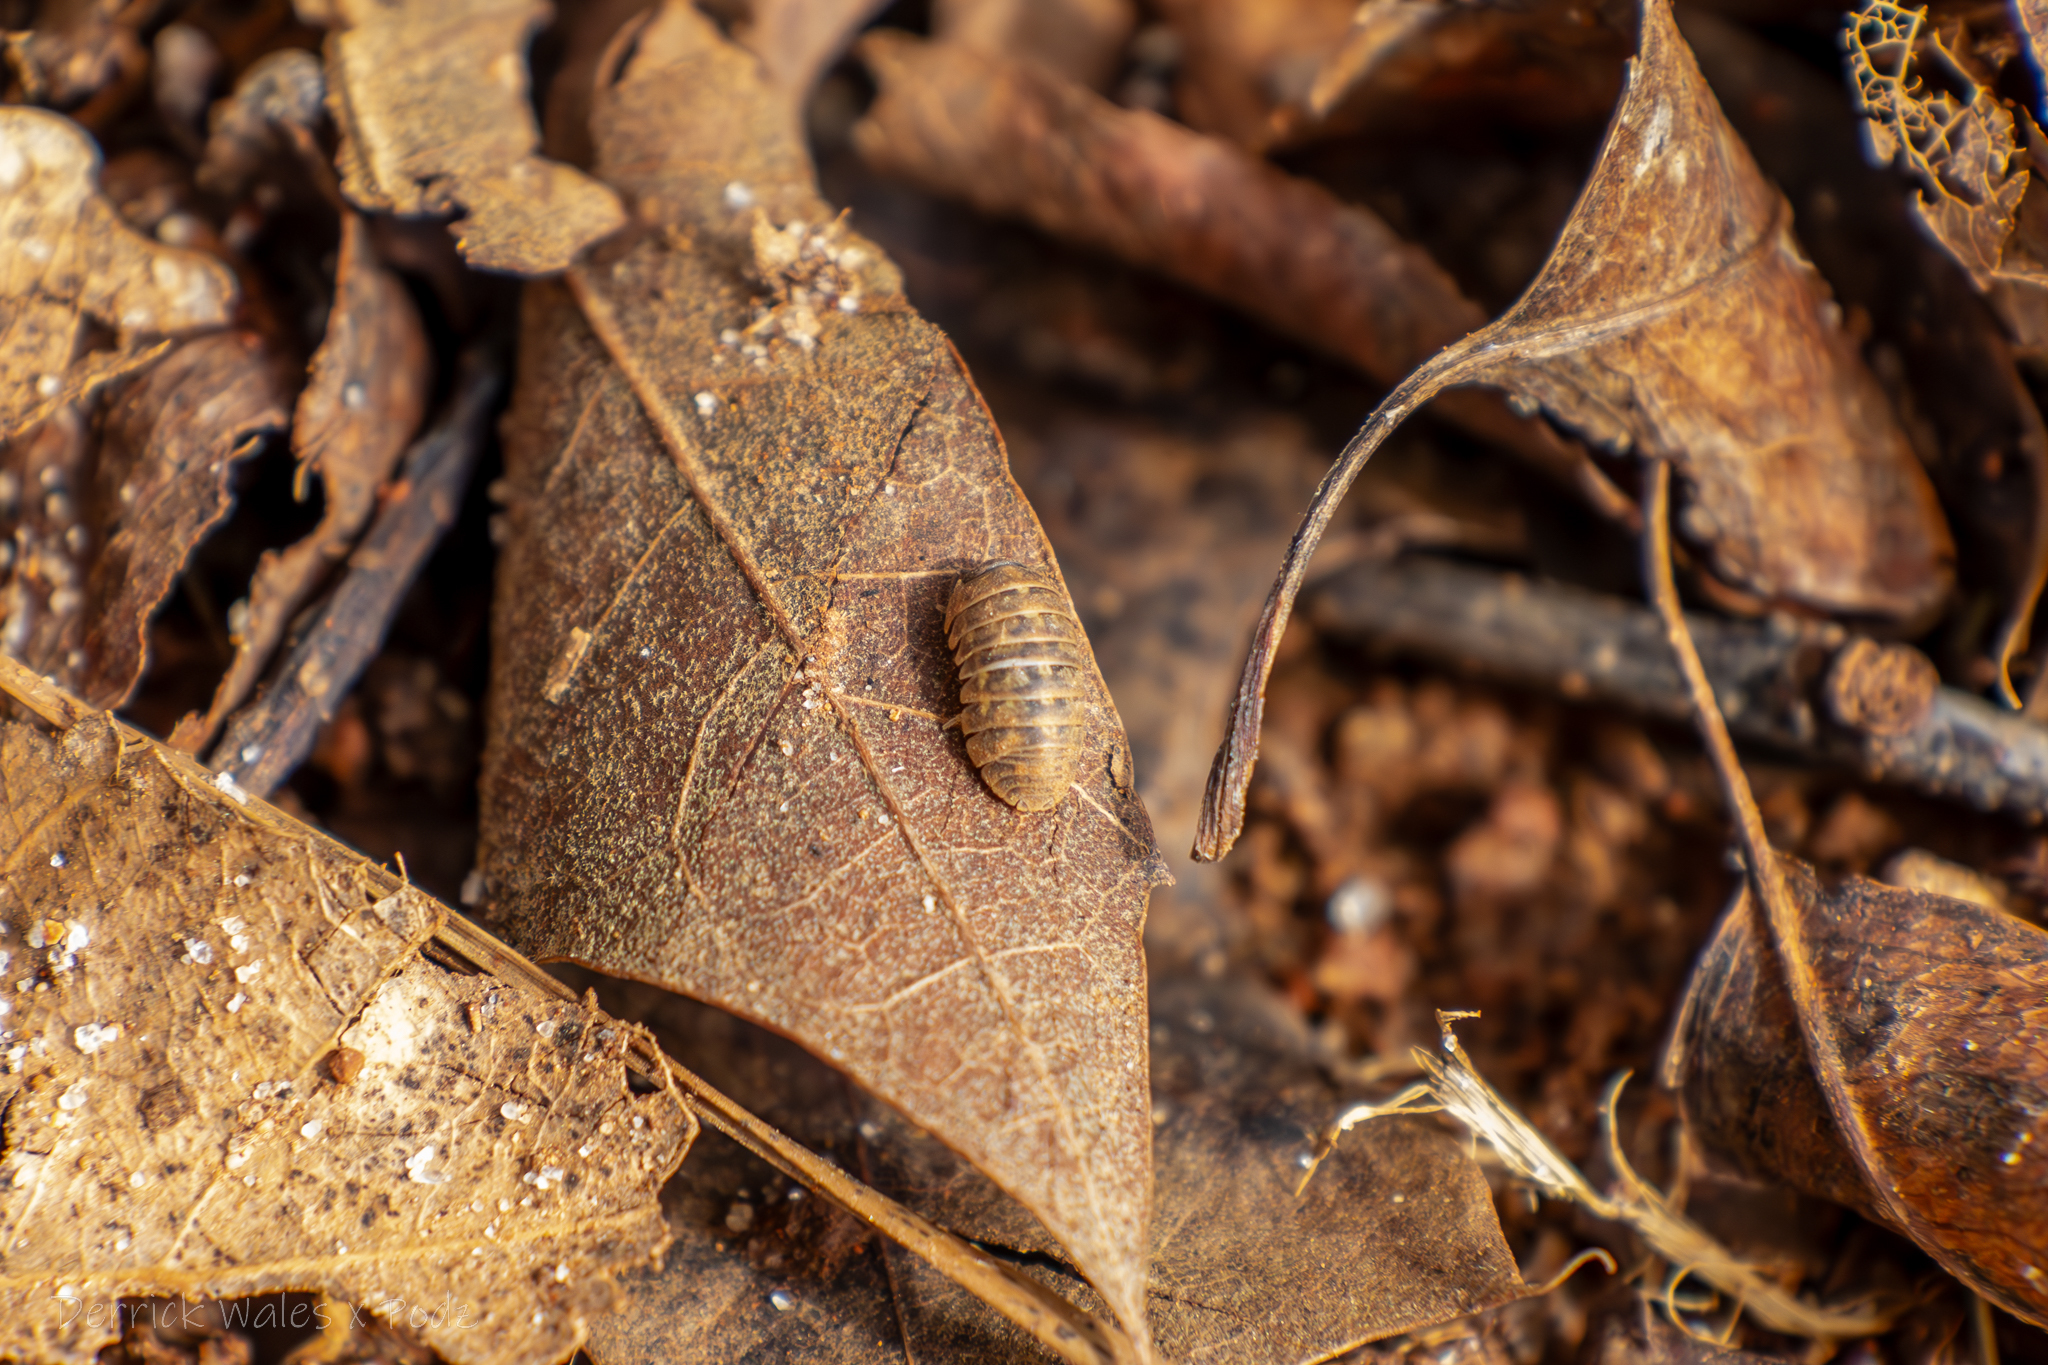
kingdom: Animalia
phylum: Arthropoda
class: Malacostraca
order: Isopoda
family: Armadillidiidae
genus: Armadillidium
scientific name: Armadillidium vulgare
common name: Common pill woodlouse
